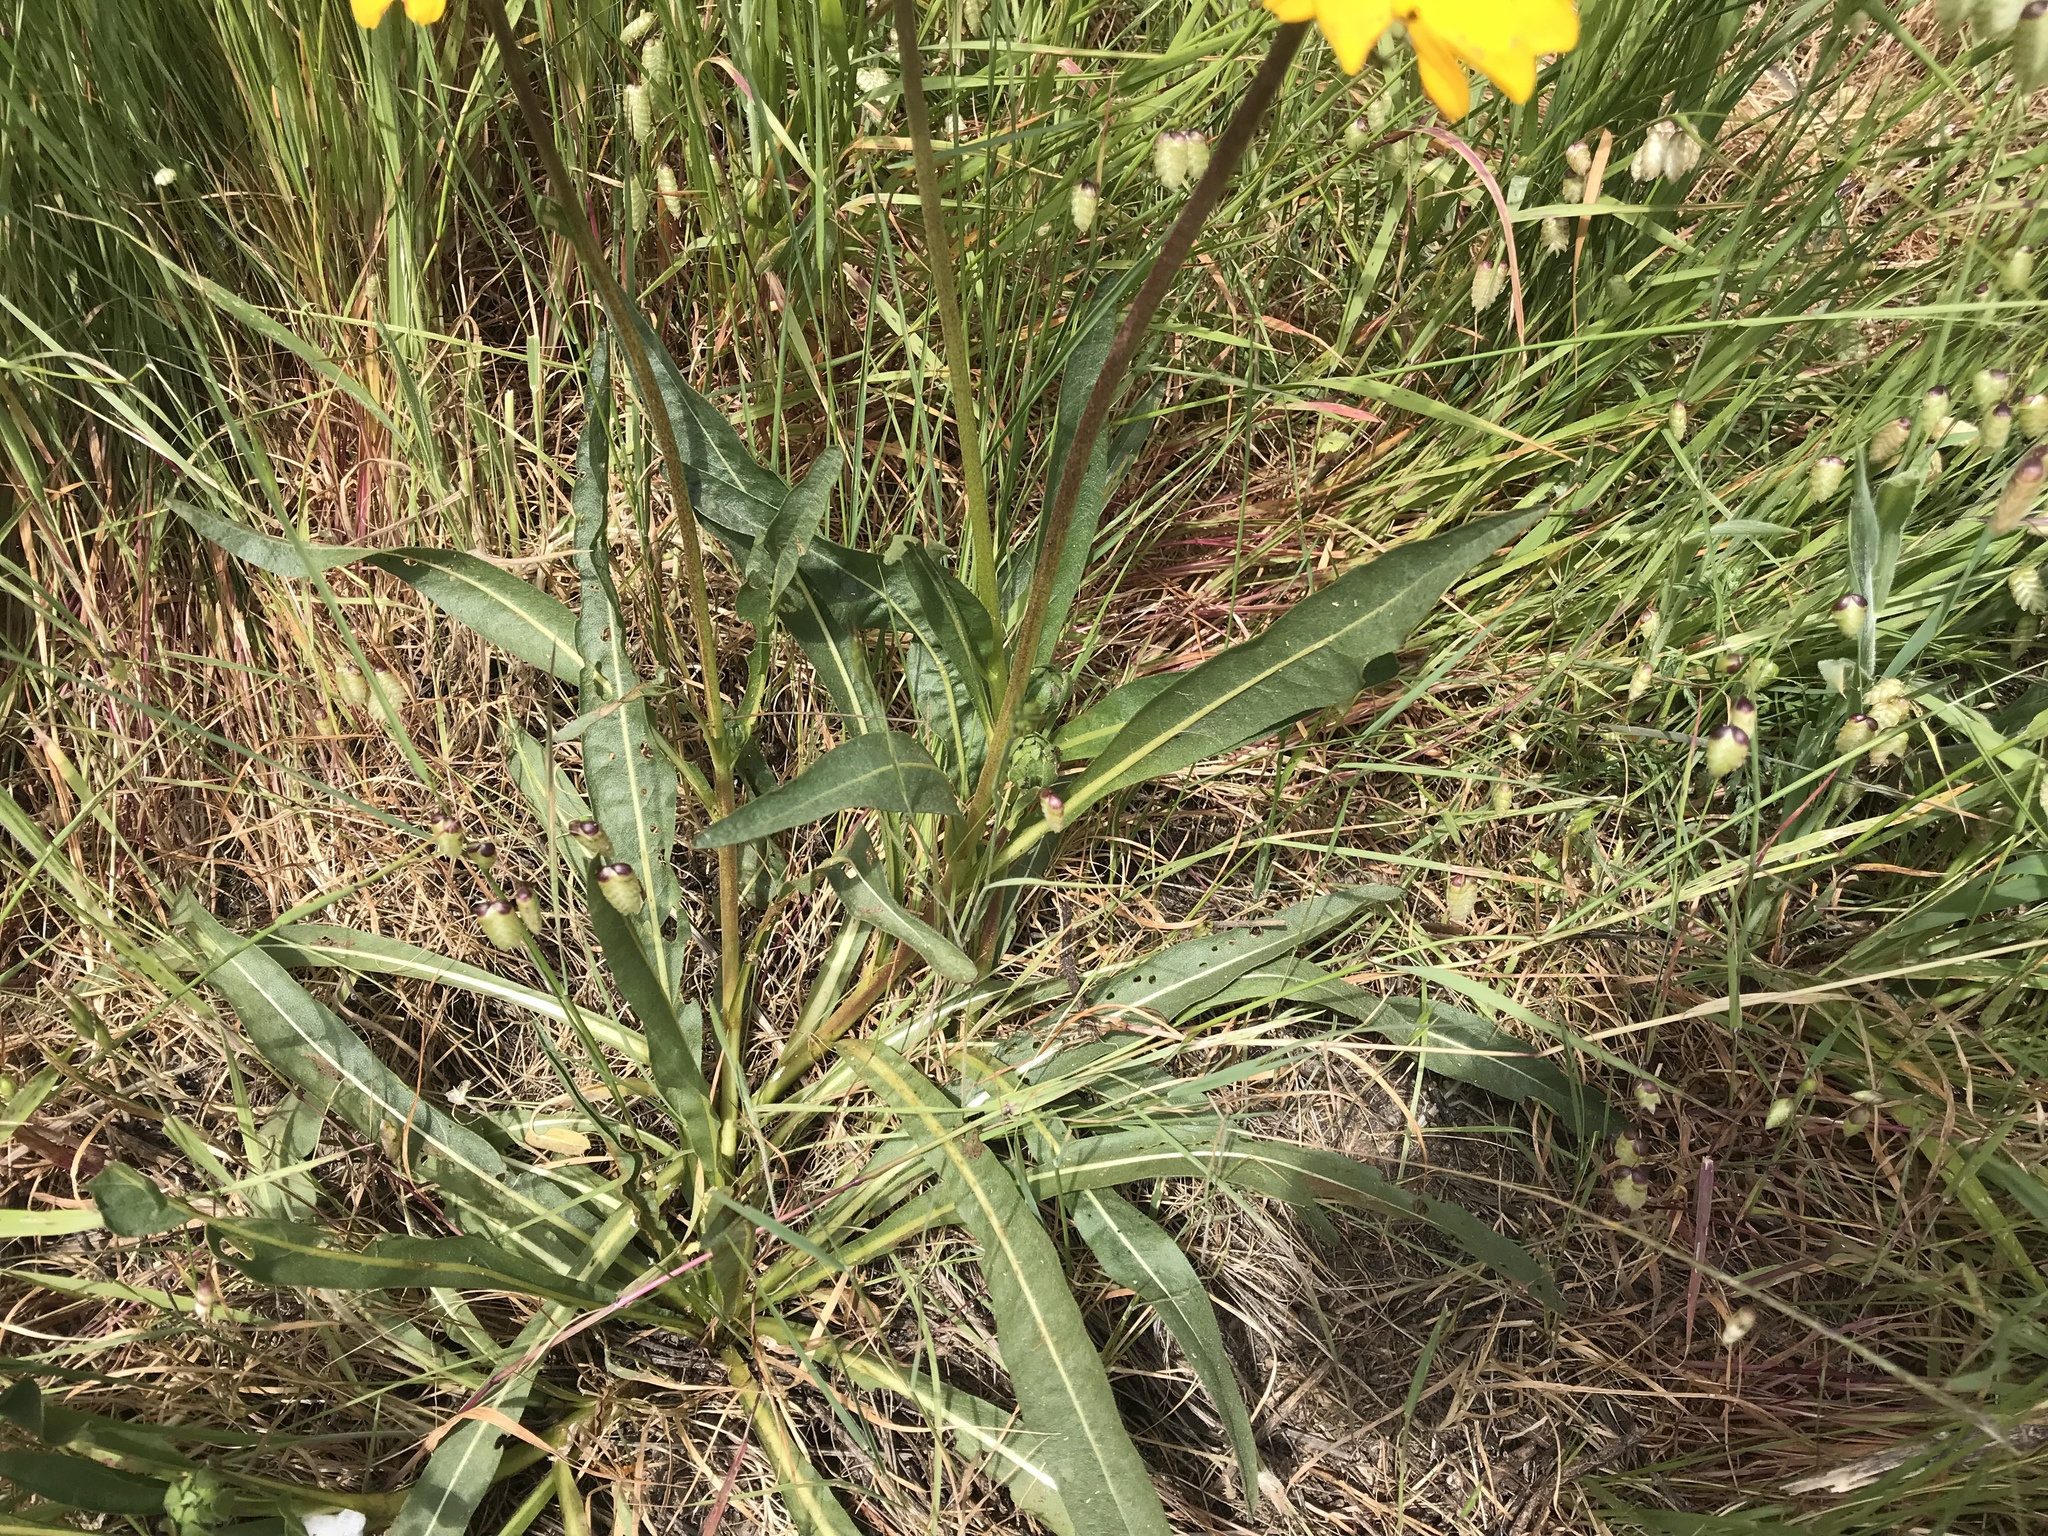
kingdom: Plantae
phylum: Tracheophyta
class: Magnoliopsida
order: Asterales
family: Asteraceae
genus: Wyethia
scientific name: Wyethia angustifolia
